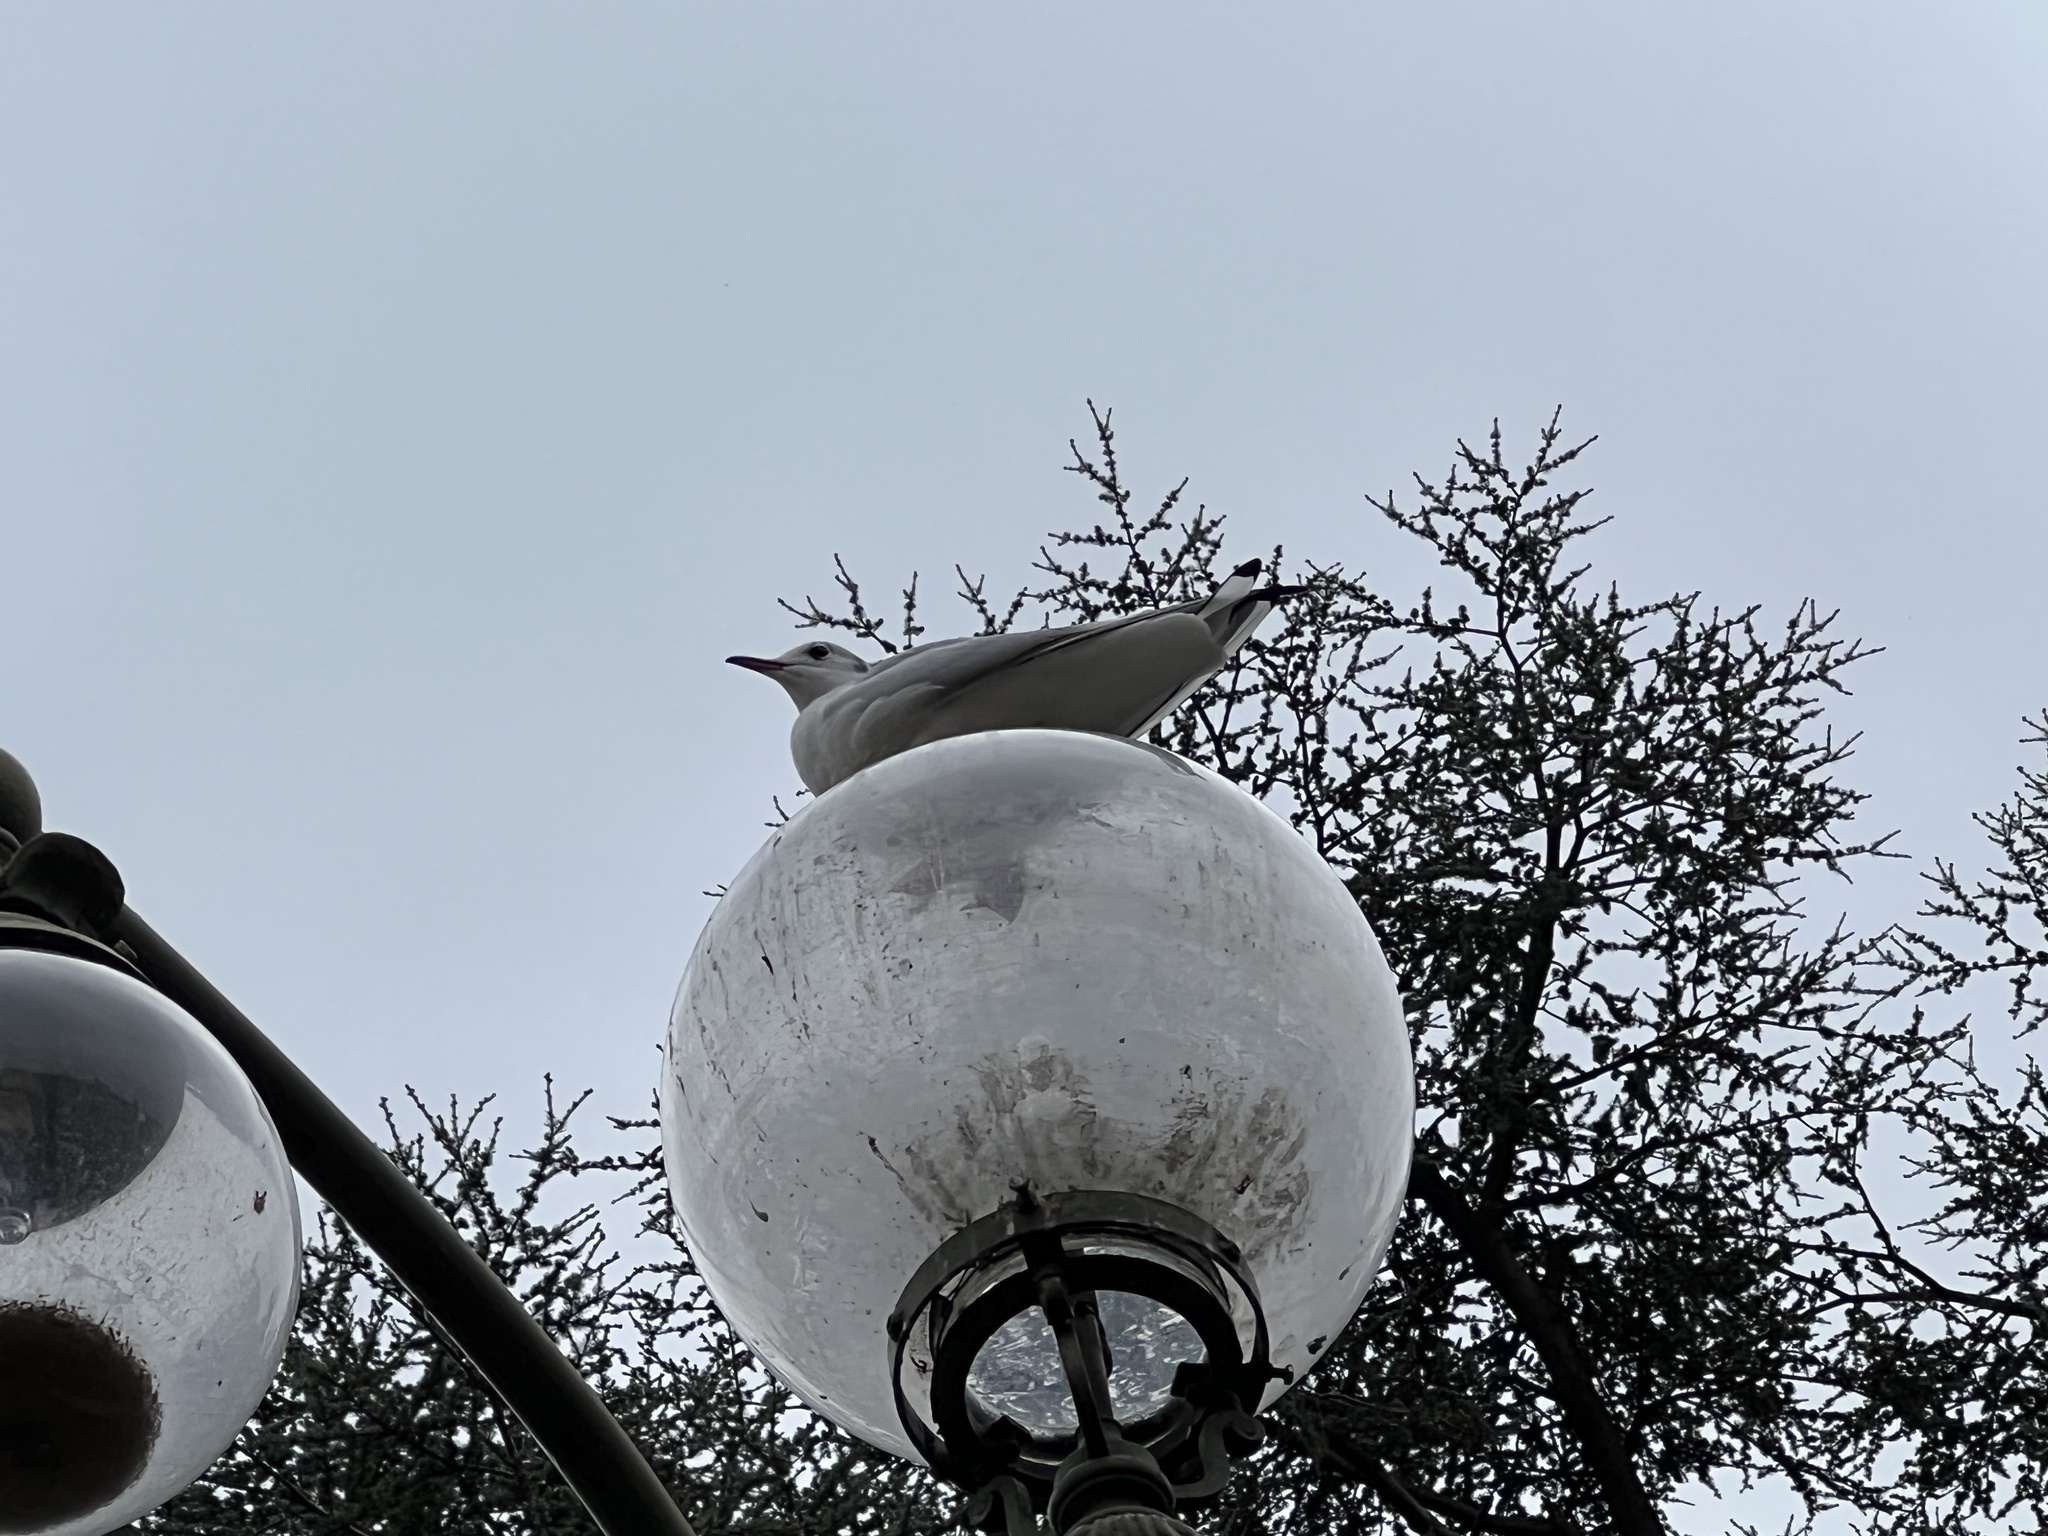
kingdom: Animalia
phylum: Chordata
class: Aves
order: Charadriiformes
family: Laridae
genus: Chroicocephalus
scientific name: Chroicocephalus ridibundus
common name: Black-headed gull
